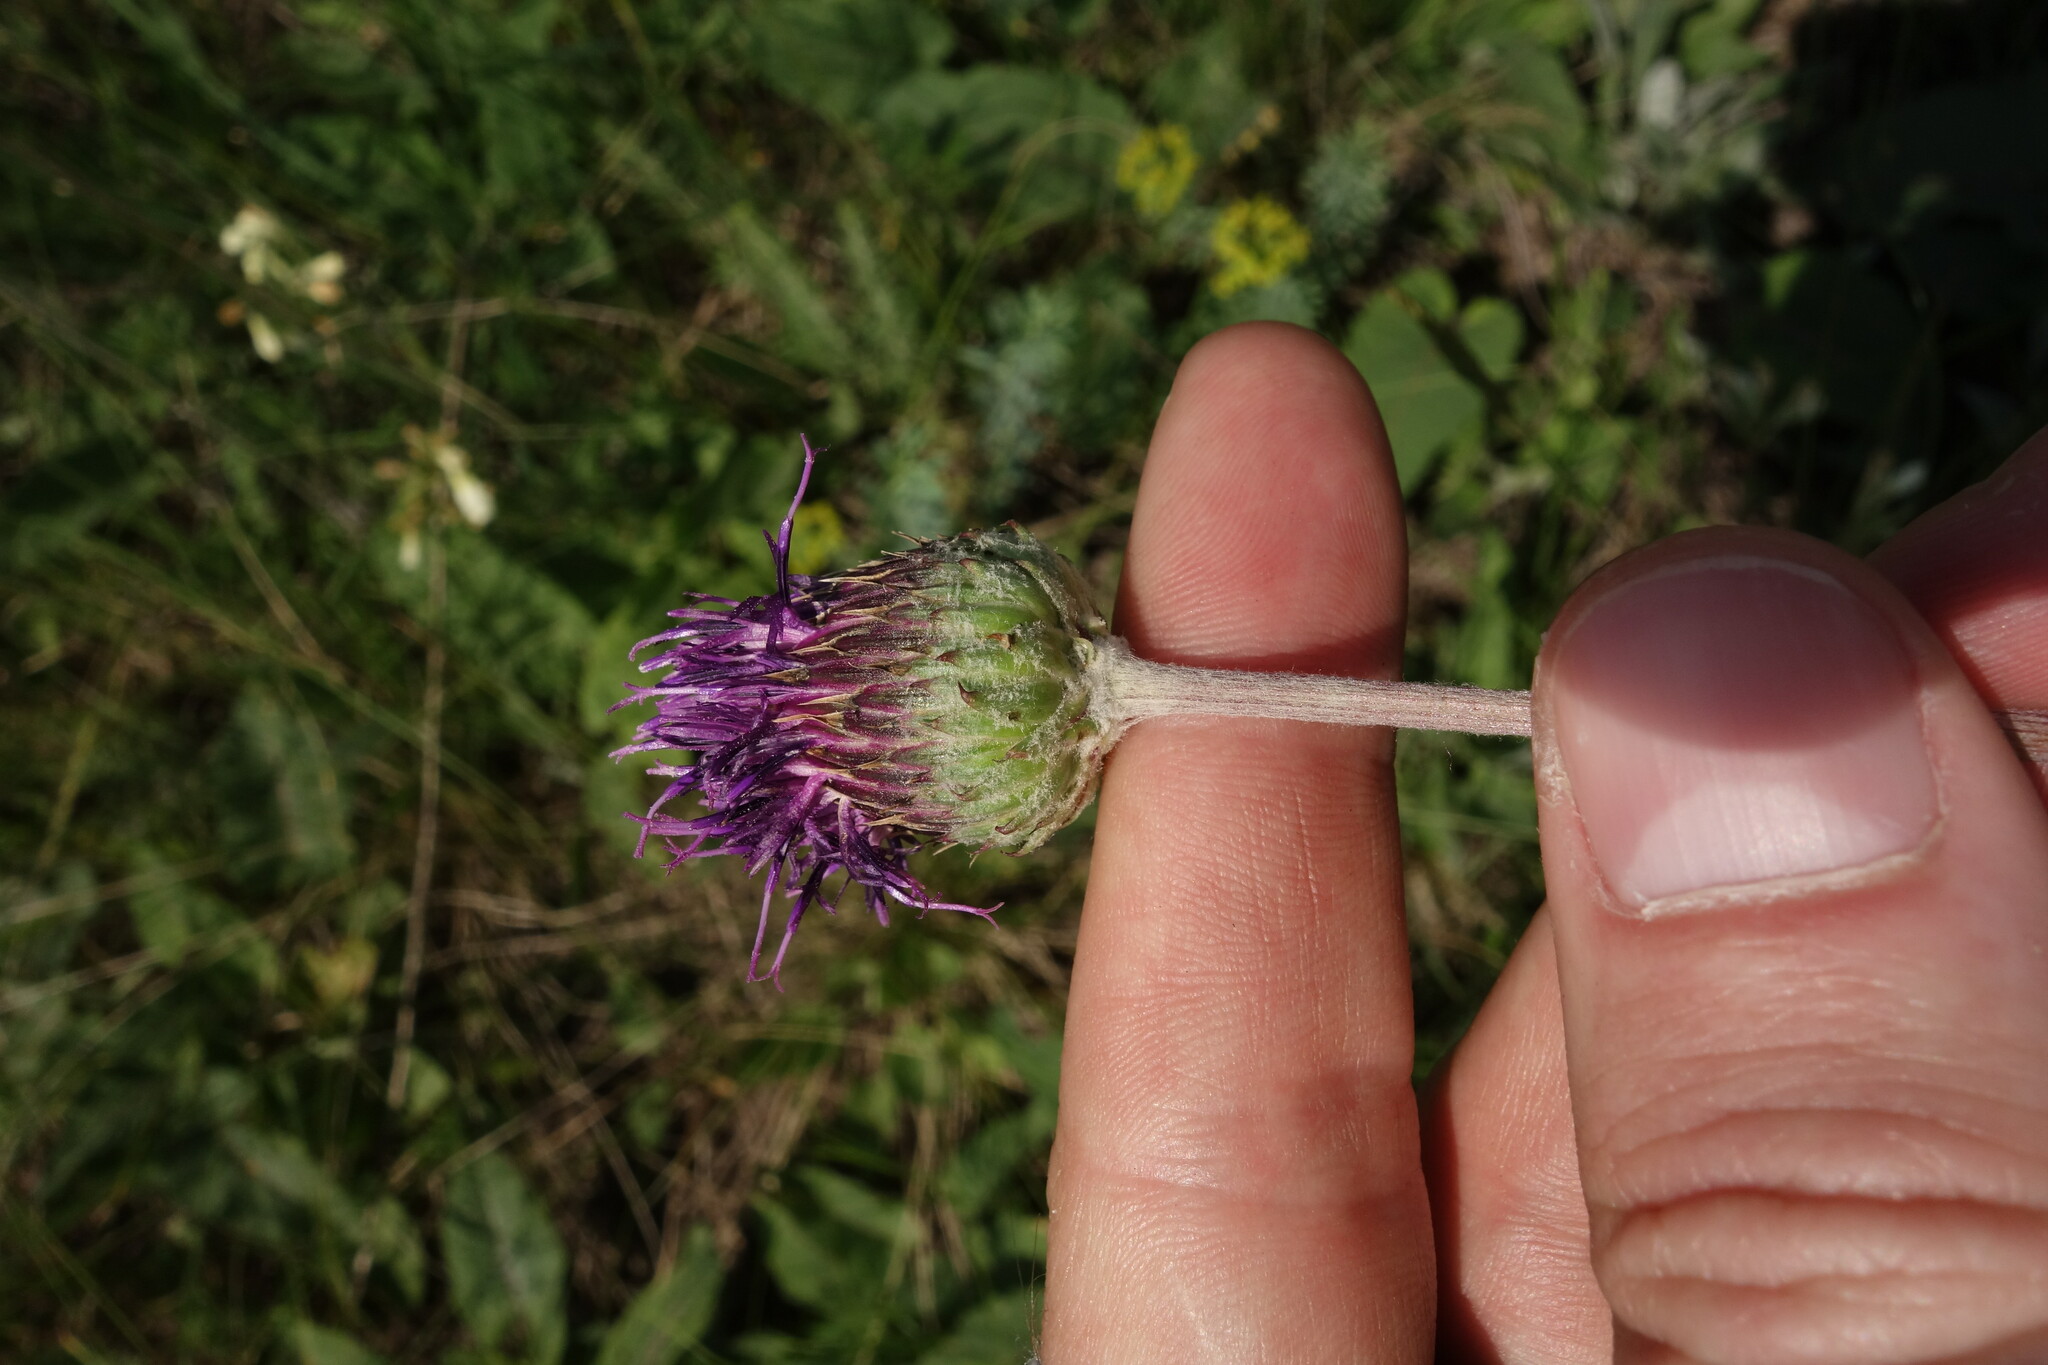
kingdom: Plantae
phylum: Tracheophyta
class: Magnoliopsida
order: Asterales
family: Asteraceae
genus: Jurinea
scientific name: Jurinea arachnoidea
